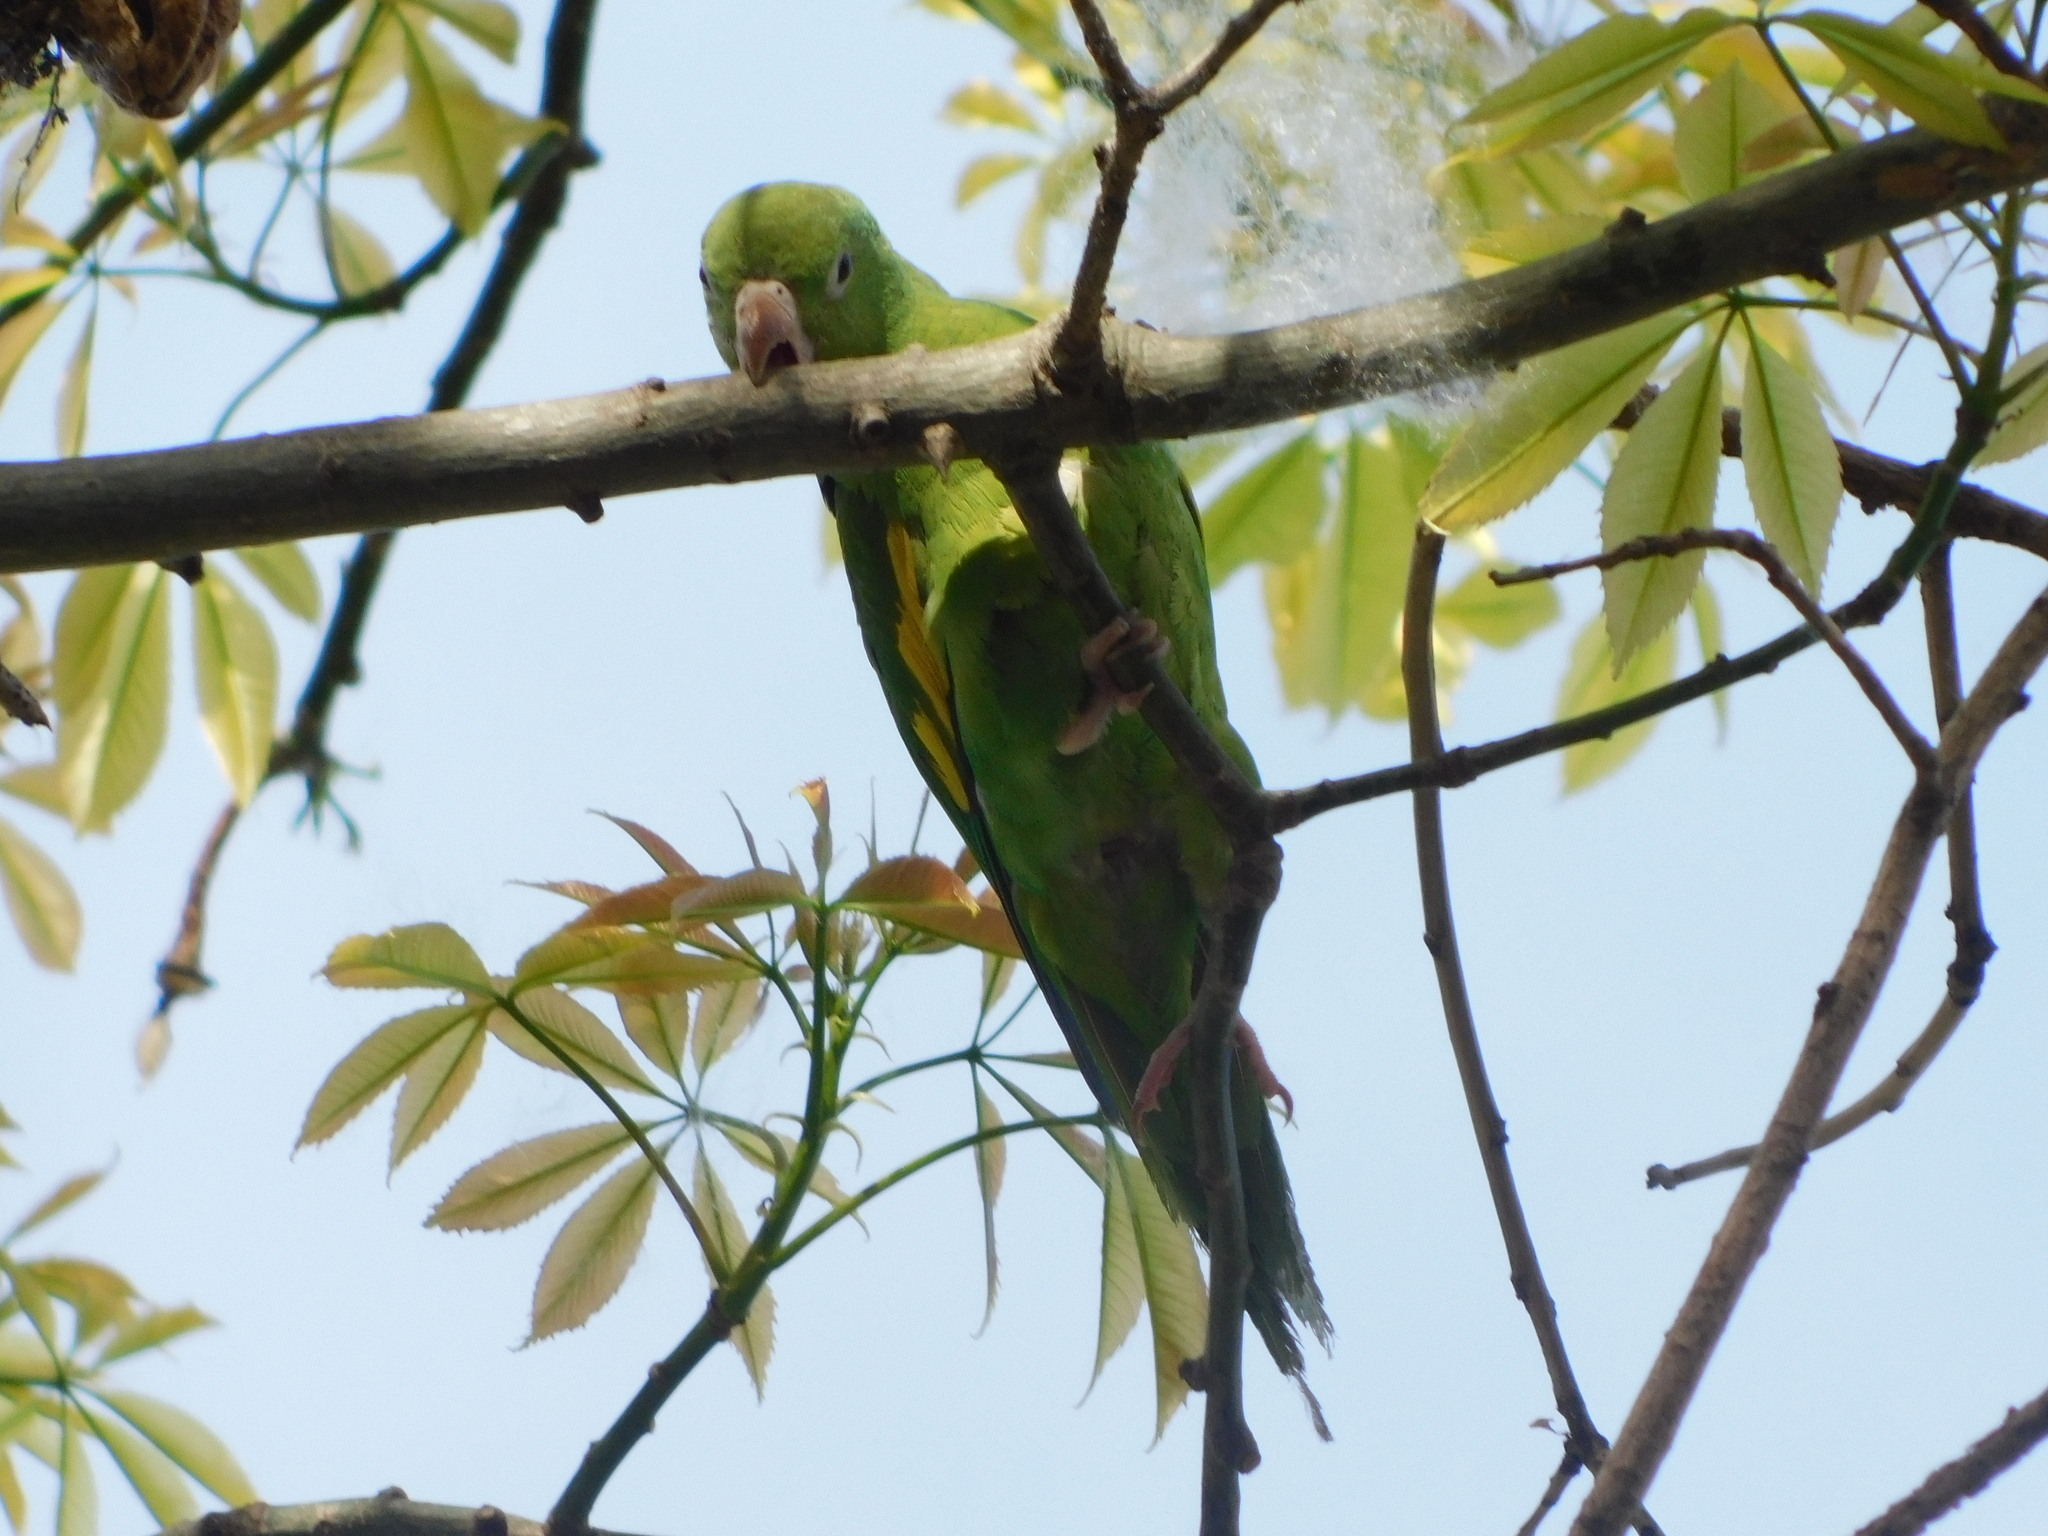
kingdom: Animalia
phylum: Chordata
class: Aves
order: Psittaciformes
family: Psittacidae
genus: Brotogeris
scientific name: Brotogeris chiriri
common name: Yellow-chevroned parakeet
